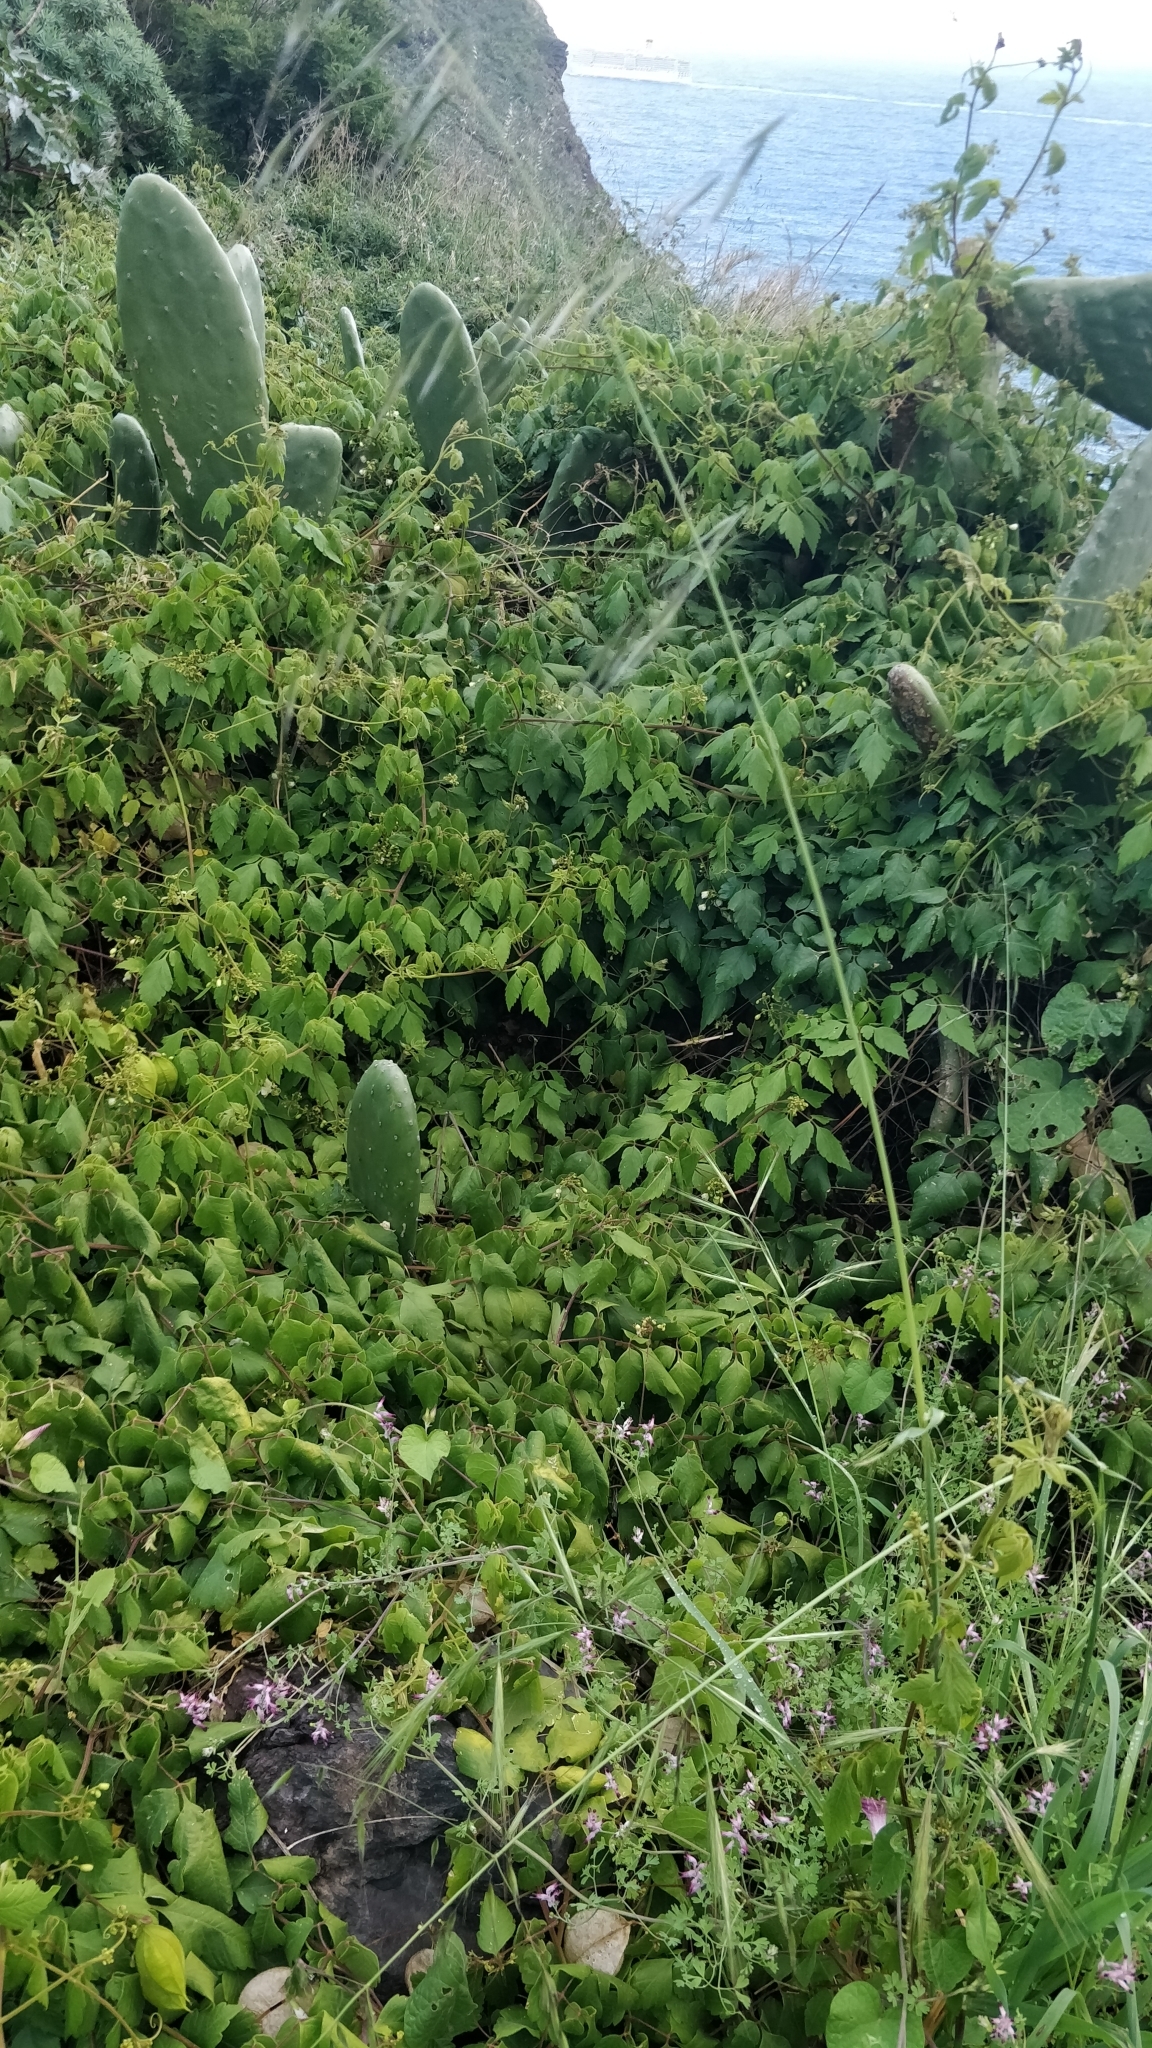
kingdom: Plantae
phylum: Tracheophyta
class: Magnoliopsida
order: Sapindales
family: Sapindaceae
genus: Cardiospermum
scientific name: Cardiospermum grandiflorum
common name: Balloon vine
